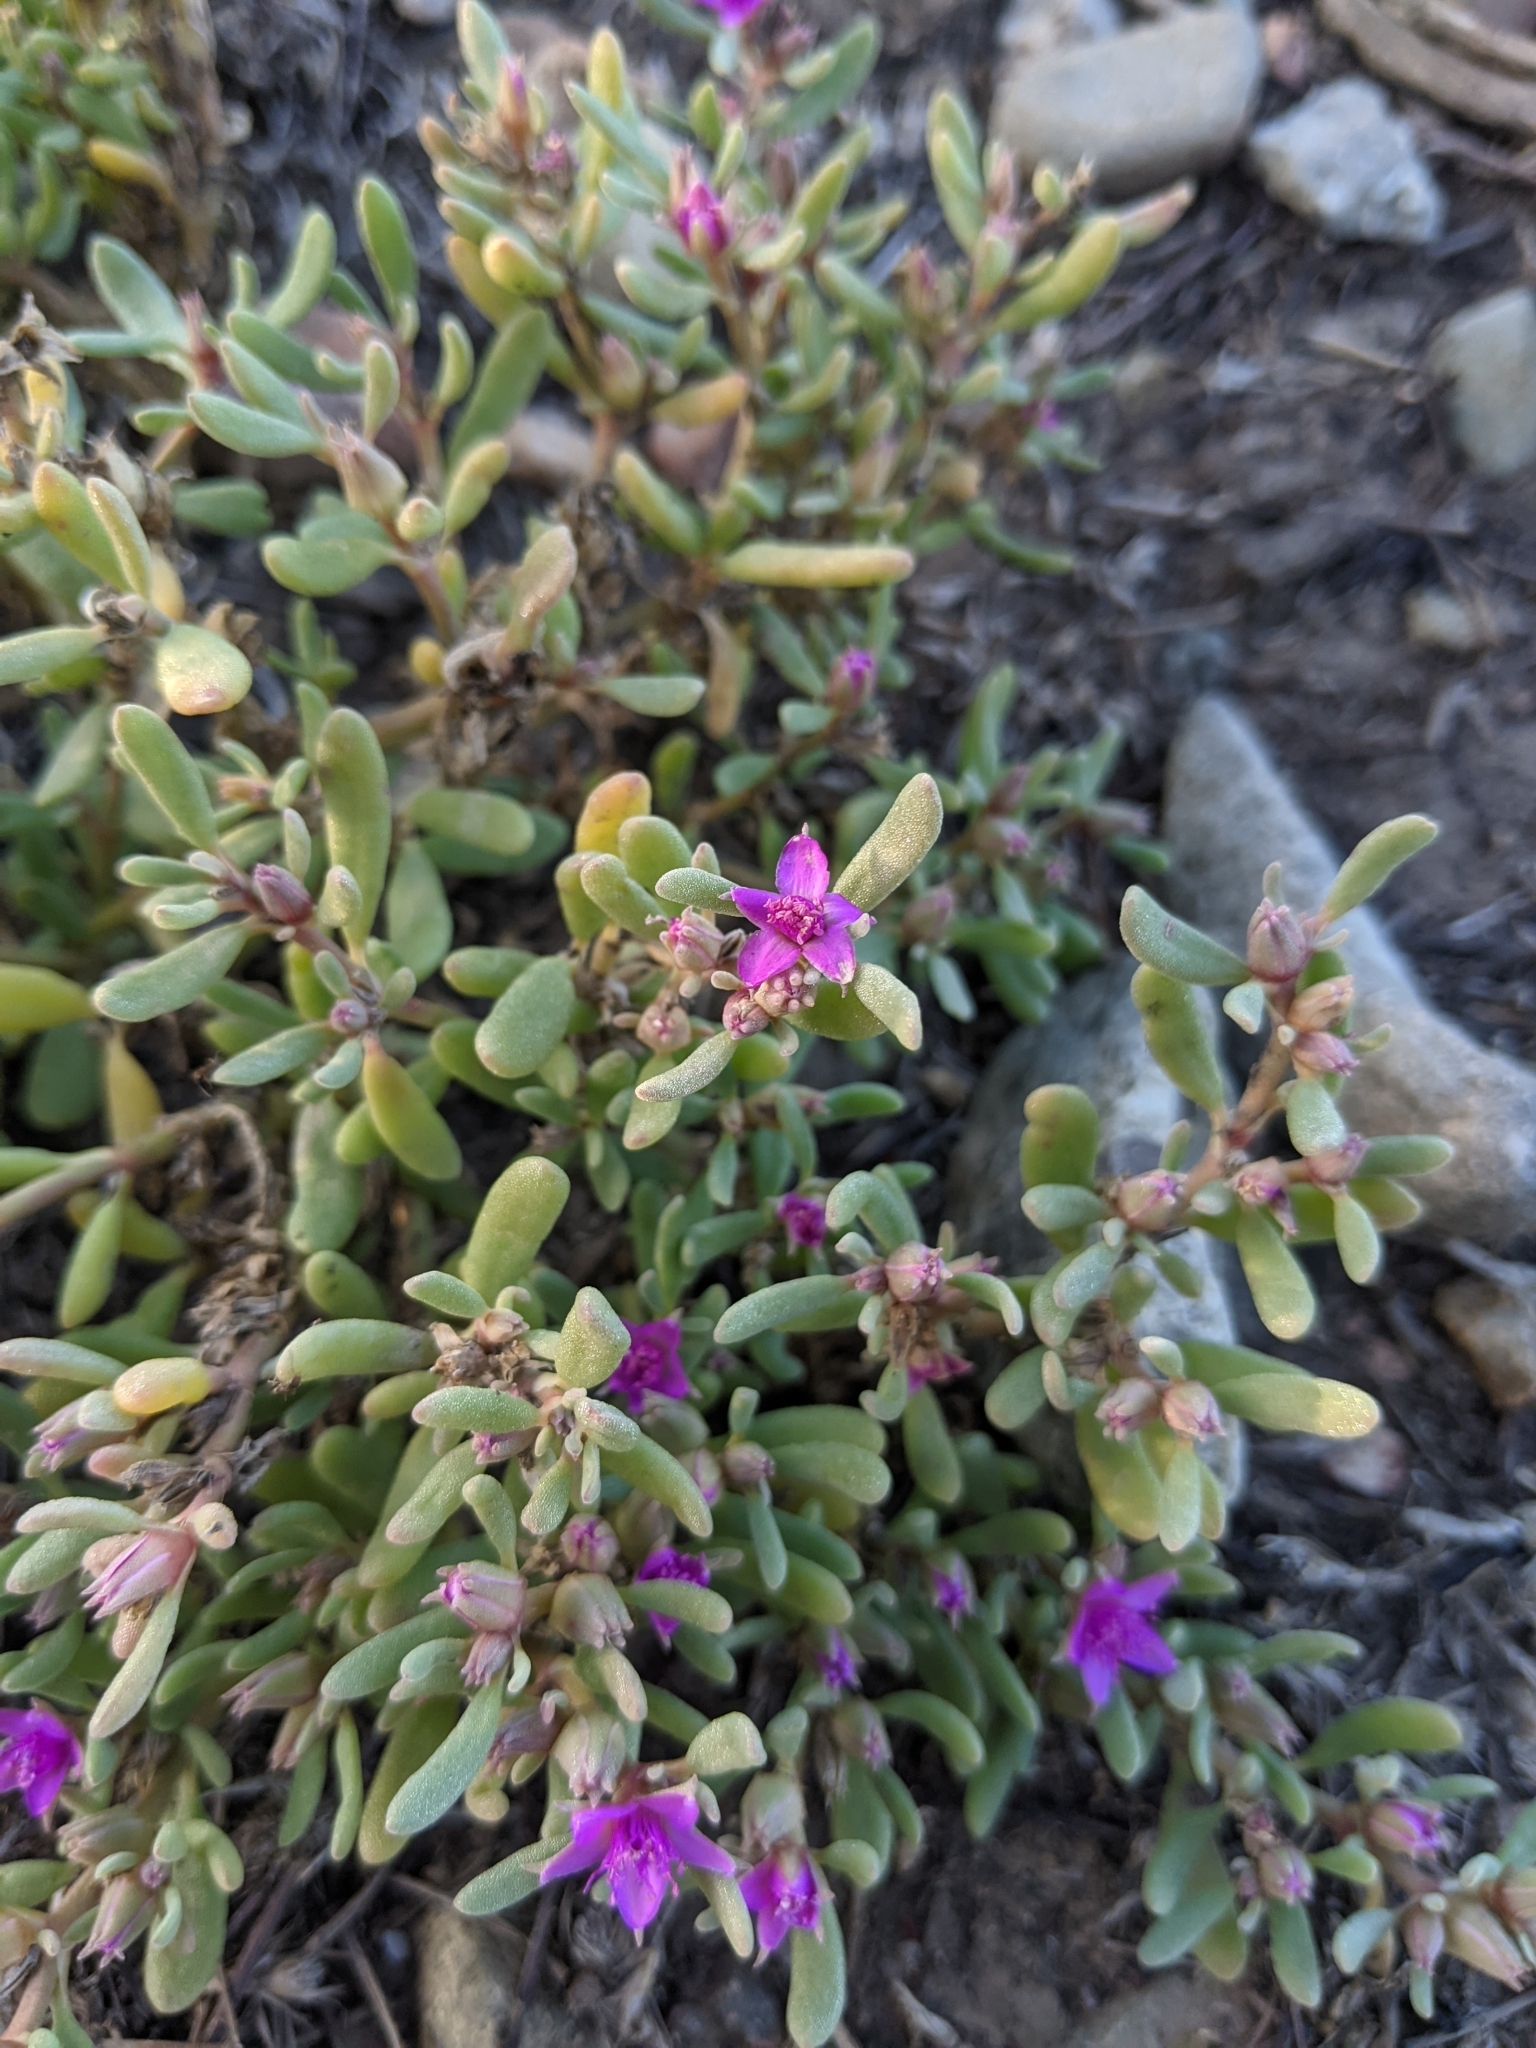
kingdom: Plantae
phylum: Tracheophyta
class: Magnoliopsida
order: Caryophyllales
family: Aizoaceae
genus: Sesuvium
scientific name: Sesuvium revolutifolium
